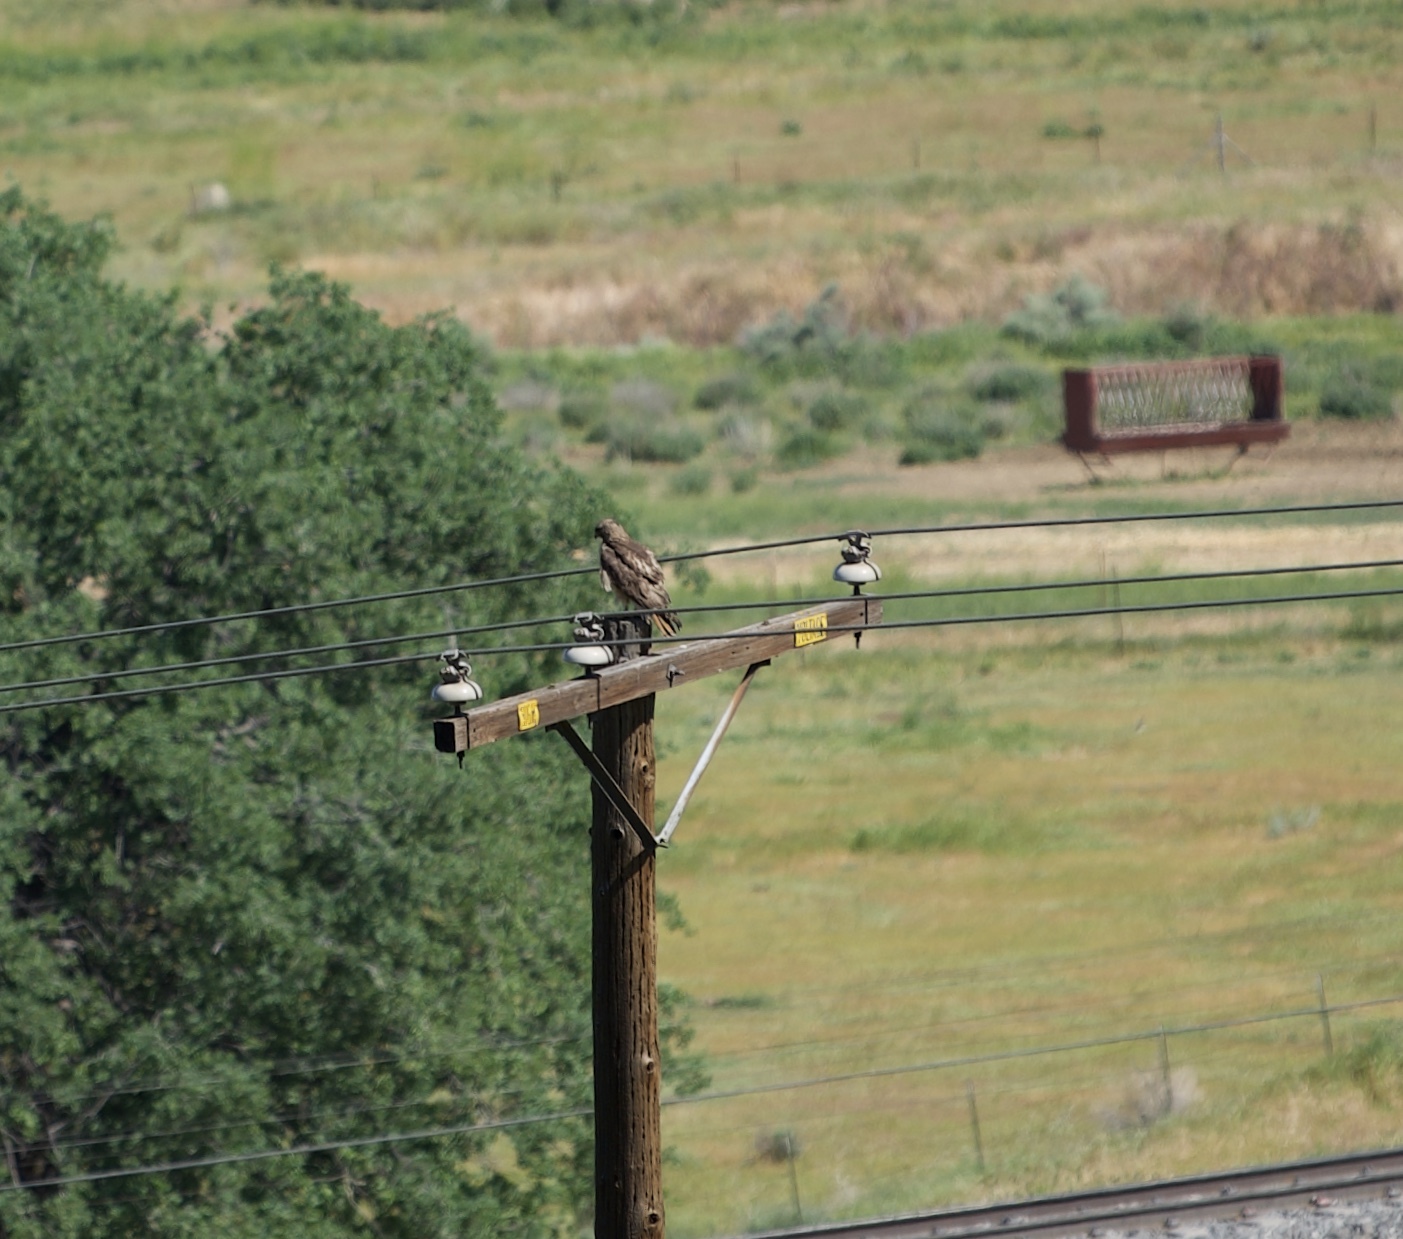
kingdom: Animalia
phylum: Chordata
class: Aves
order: Accipitriformes
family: Accipitridae
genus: Buteo
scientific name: Buteo jamaicensis
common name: Red-tailed hawk
